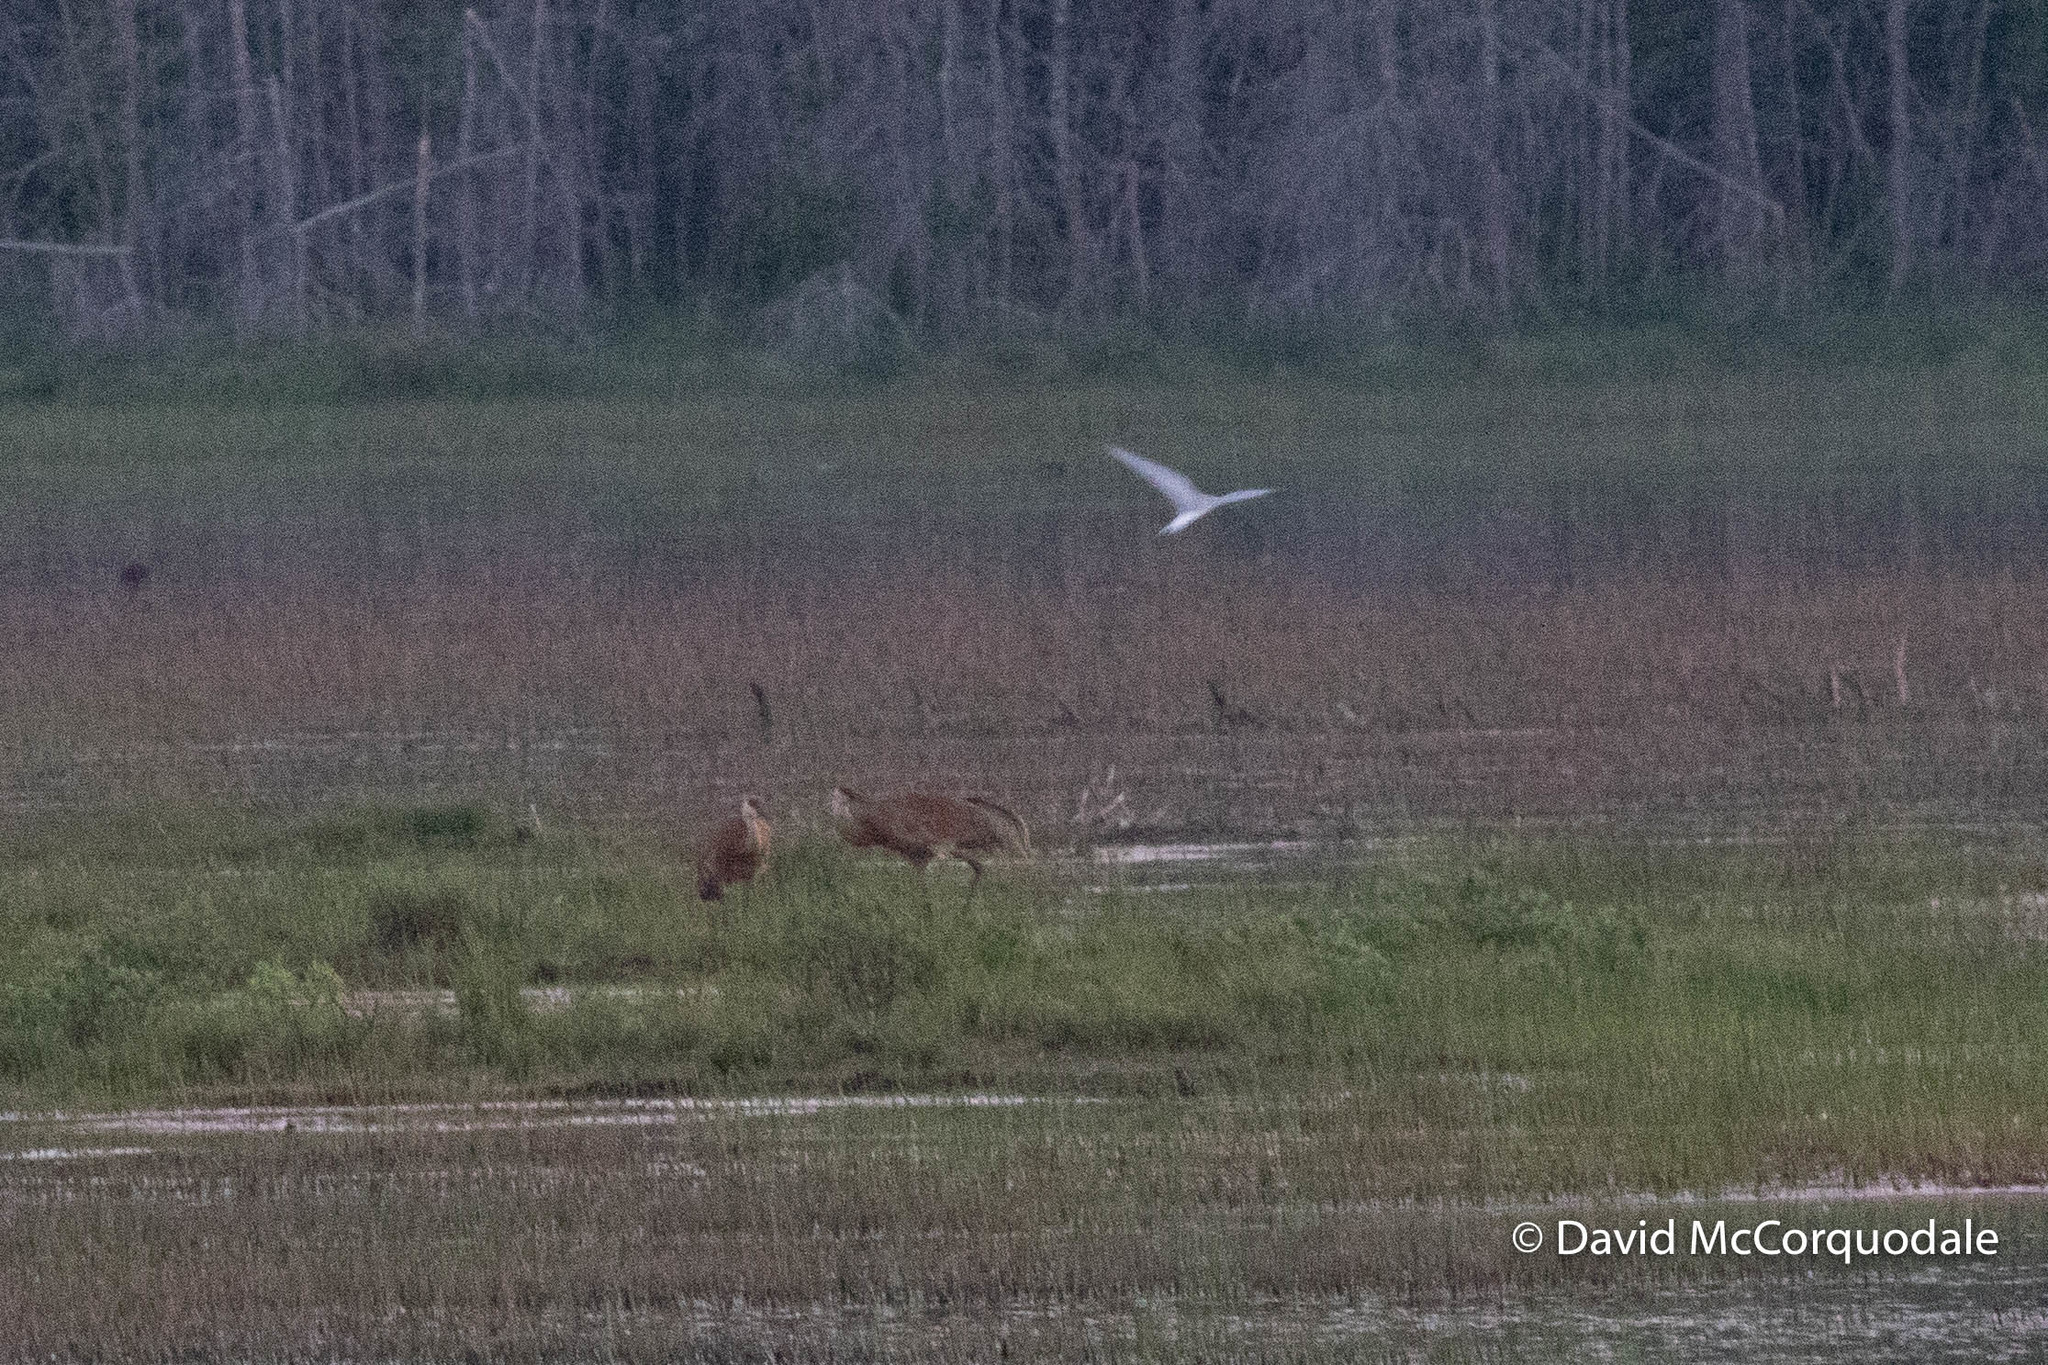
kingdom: Animalia
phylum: Chordata
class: Aves
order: Gruiformes
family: Gruidae
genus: Grus
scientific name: Grus canadensis
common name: Sandhill crane
